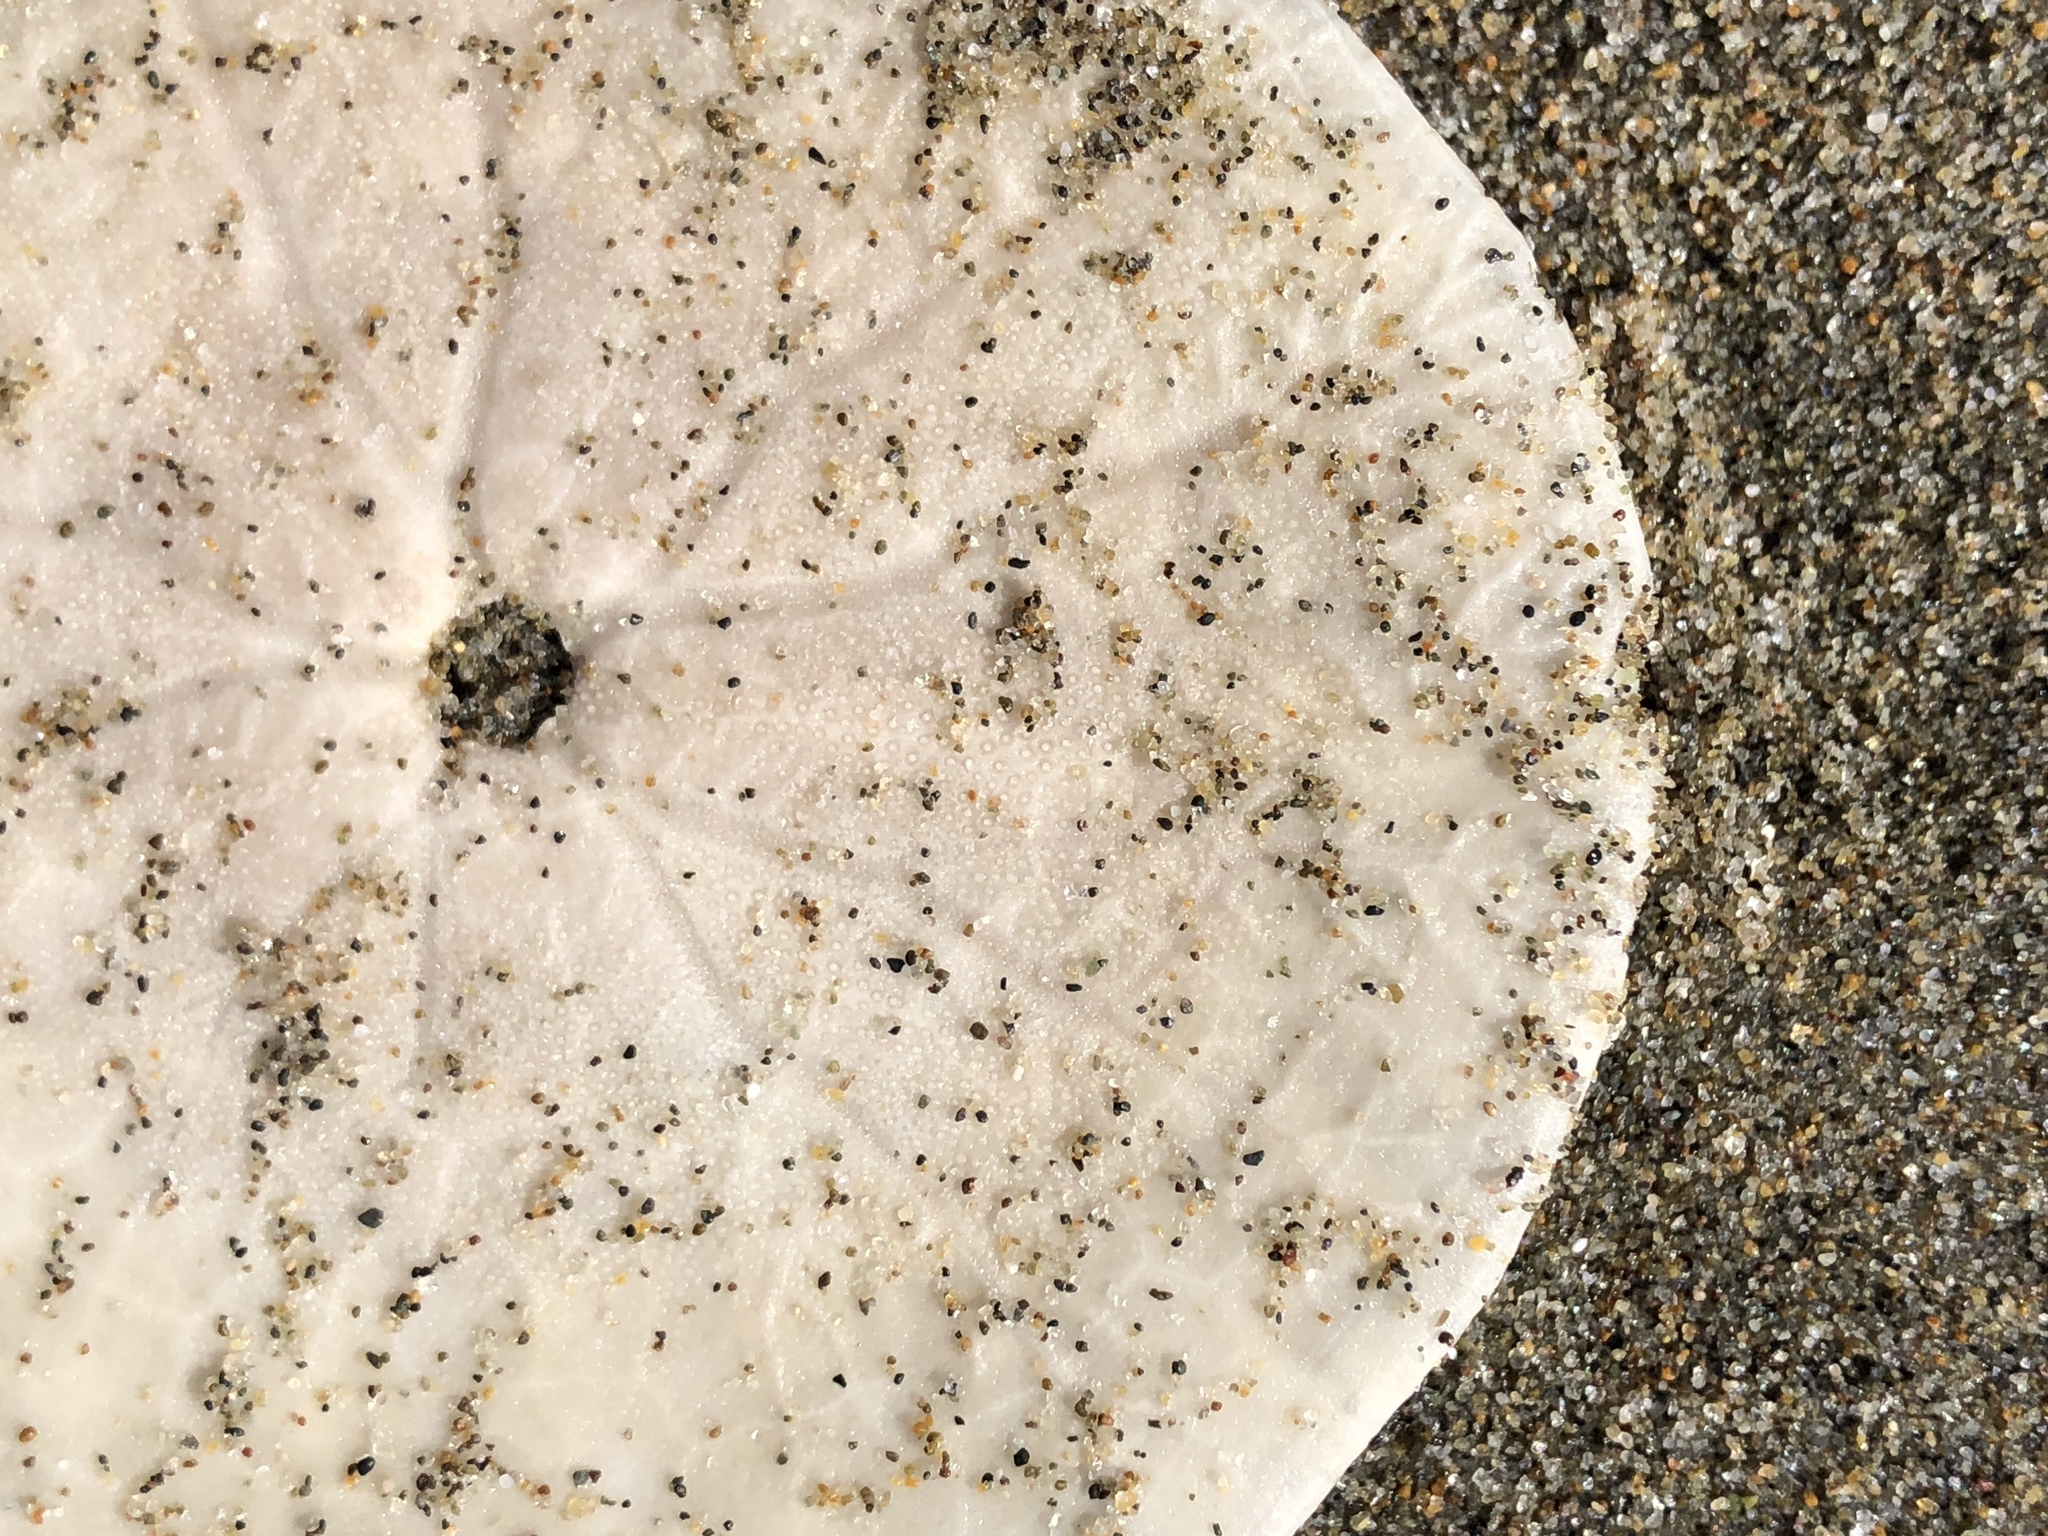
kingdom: Animalia
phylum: Echinodermata
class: Echinoidea
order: Echinolampadacea
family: Dendrasteridae
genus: Dendraster
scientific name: Dendraster excentricus
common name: Eccentric sand dollar sea urchin
